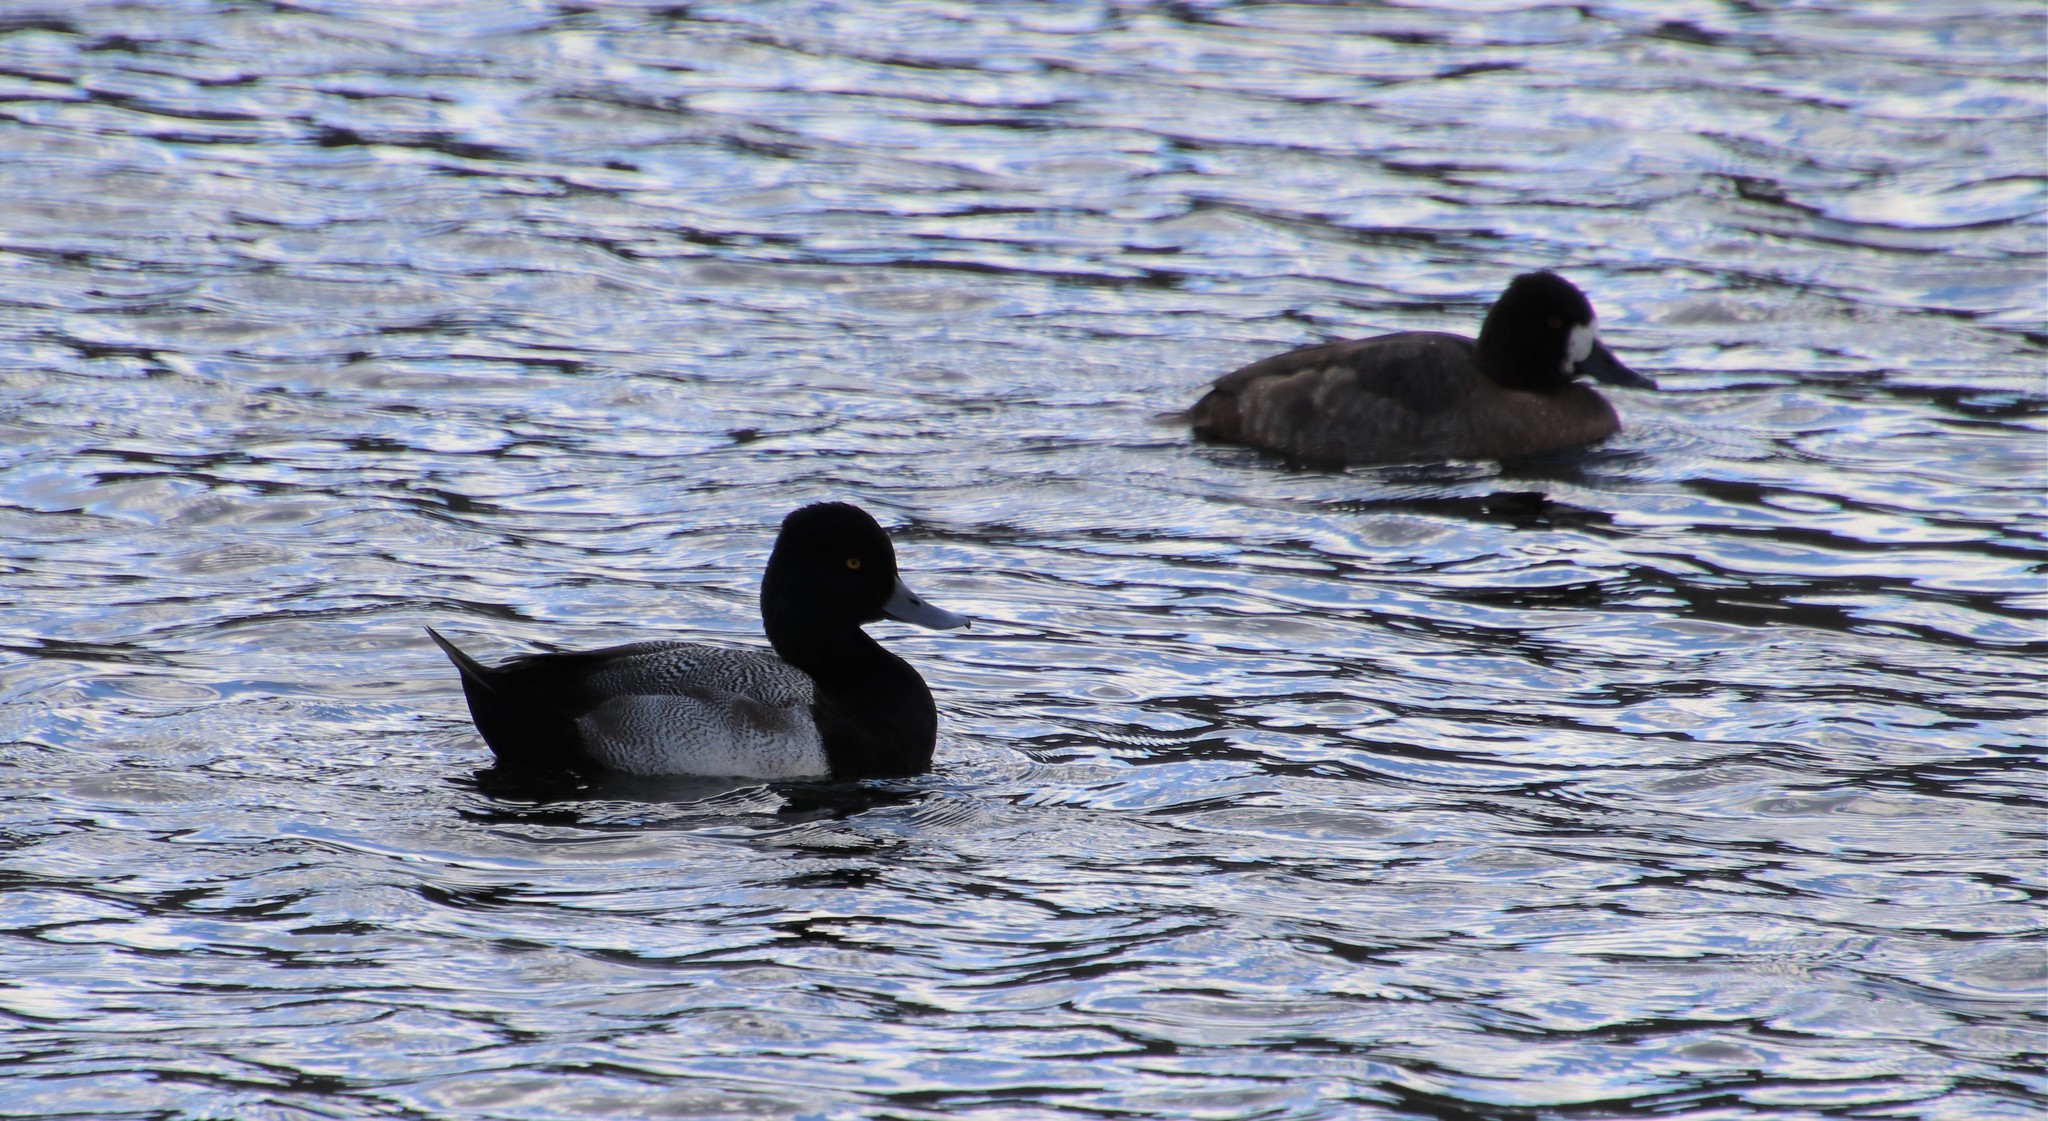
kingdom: Animalia
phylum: Chordata
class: Aves
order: Anseriformes
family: Anatidae
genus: Aythya
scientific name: Aythya affinis
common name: Lesser scaup
